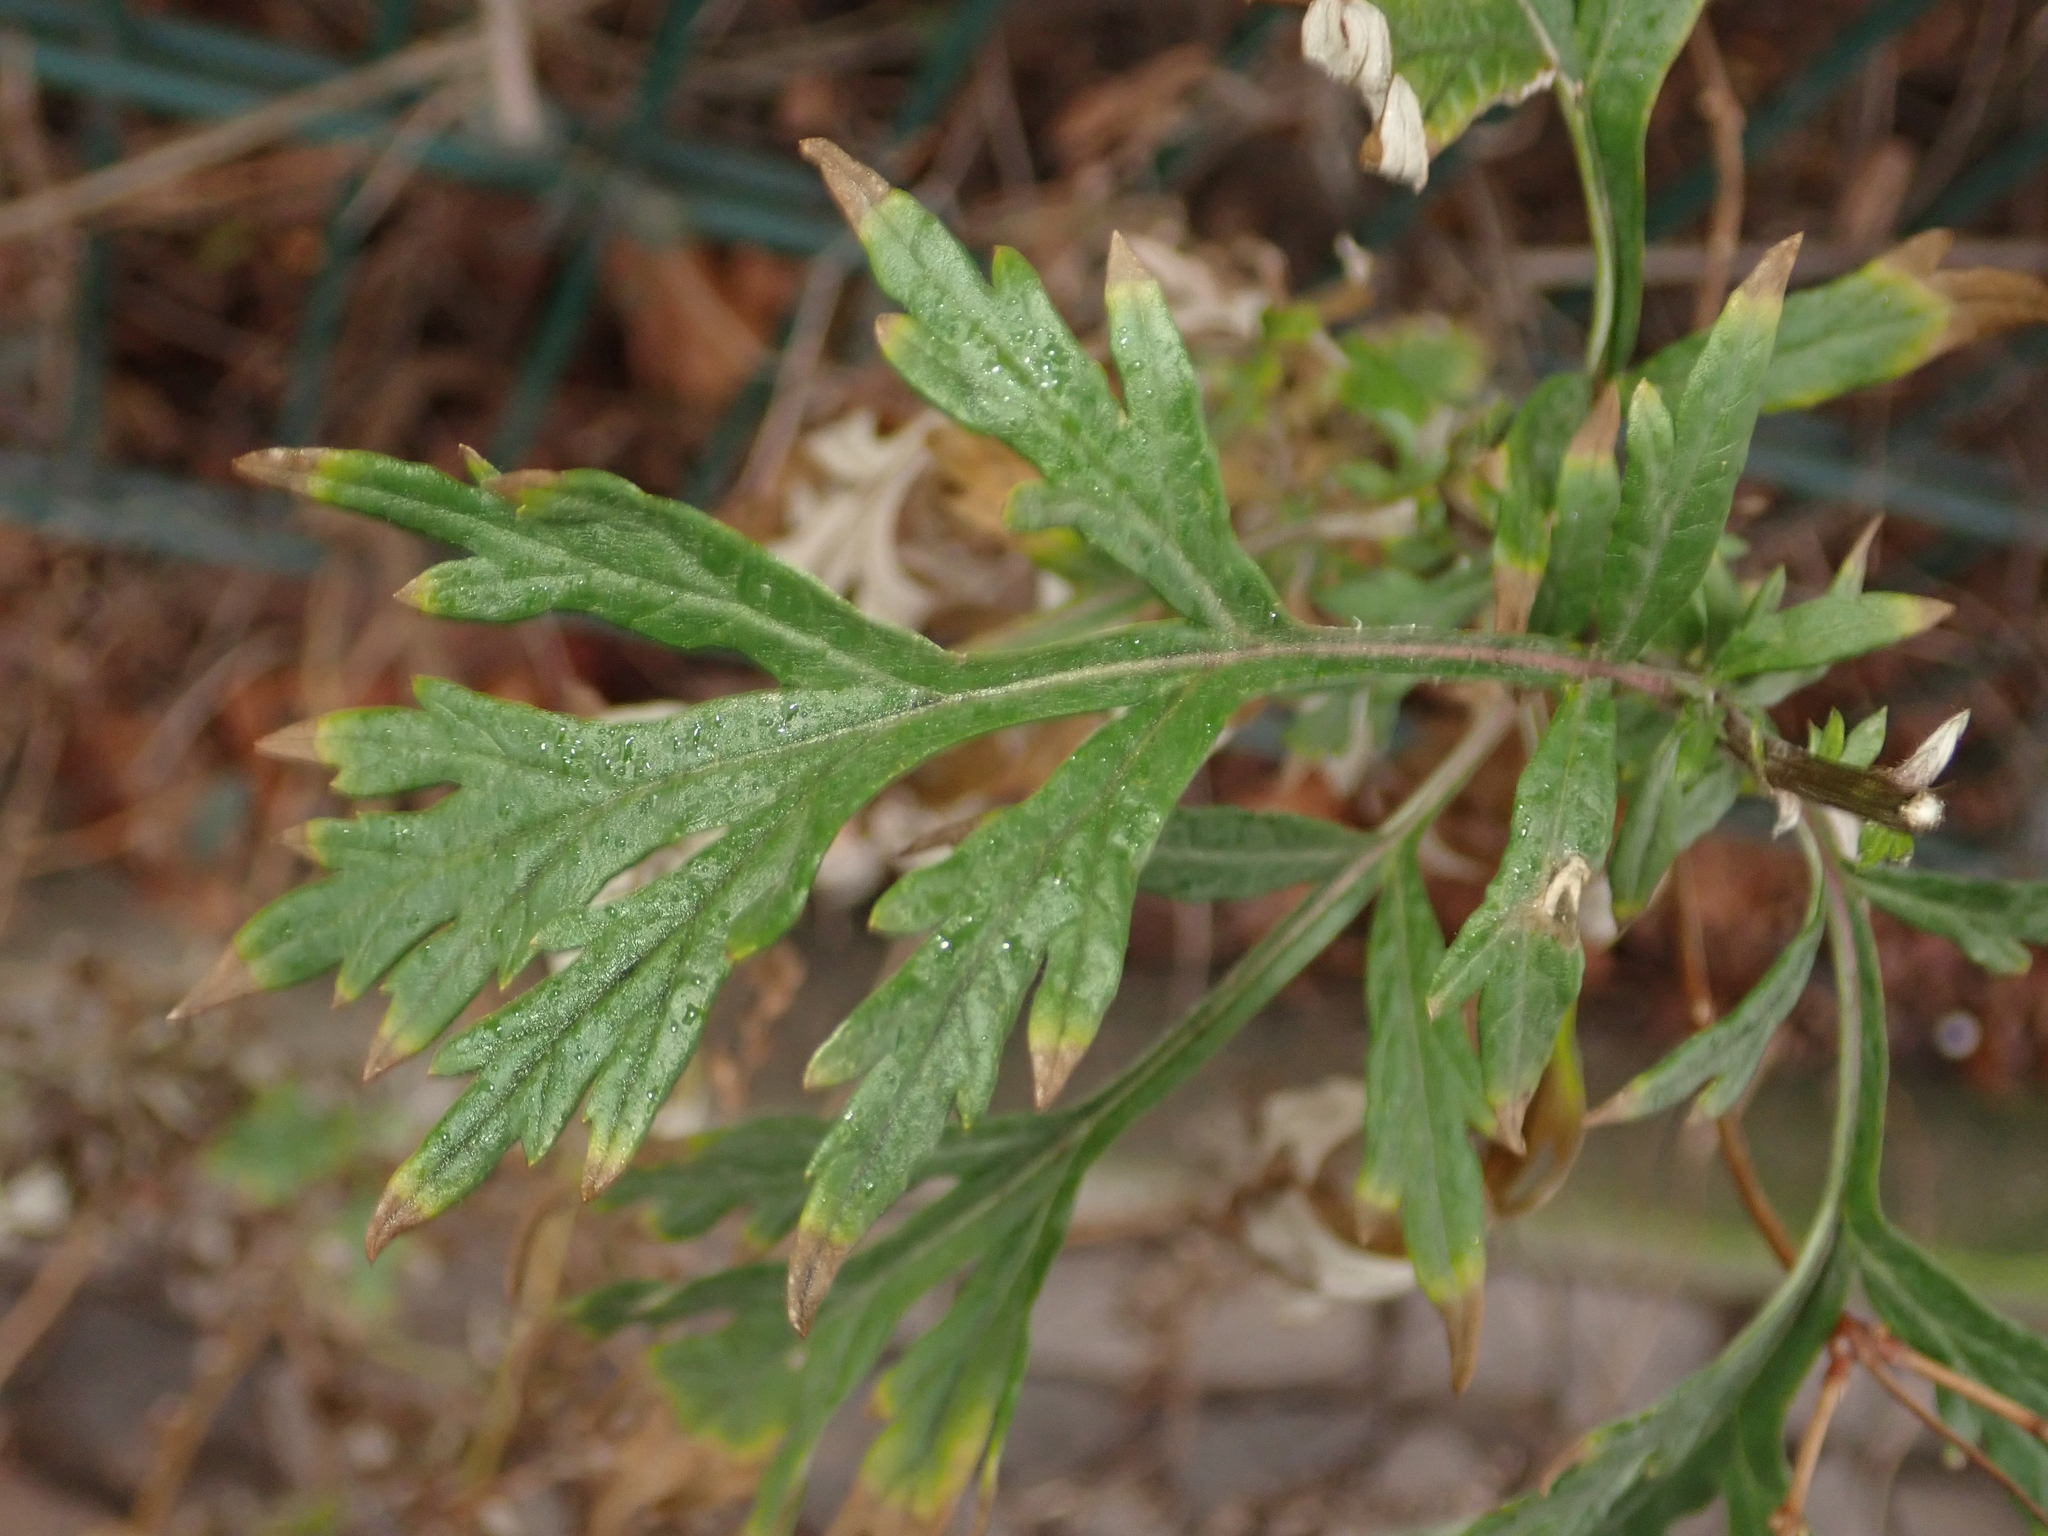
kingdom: Plantae
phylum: Tracheophyta
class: Magnoliopsida
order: Asterales
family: Asteraceae
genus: Artemisia
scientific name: Artemisia vulgaris
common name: Mugwort
